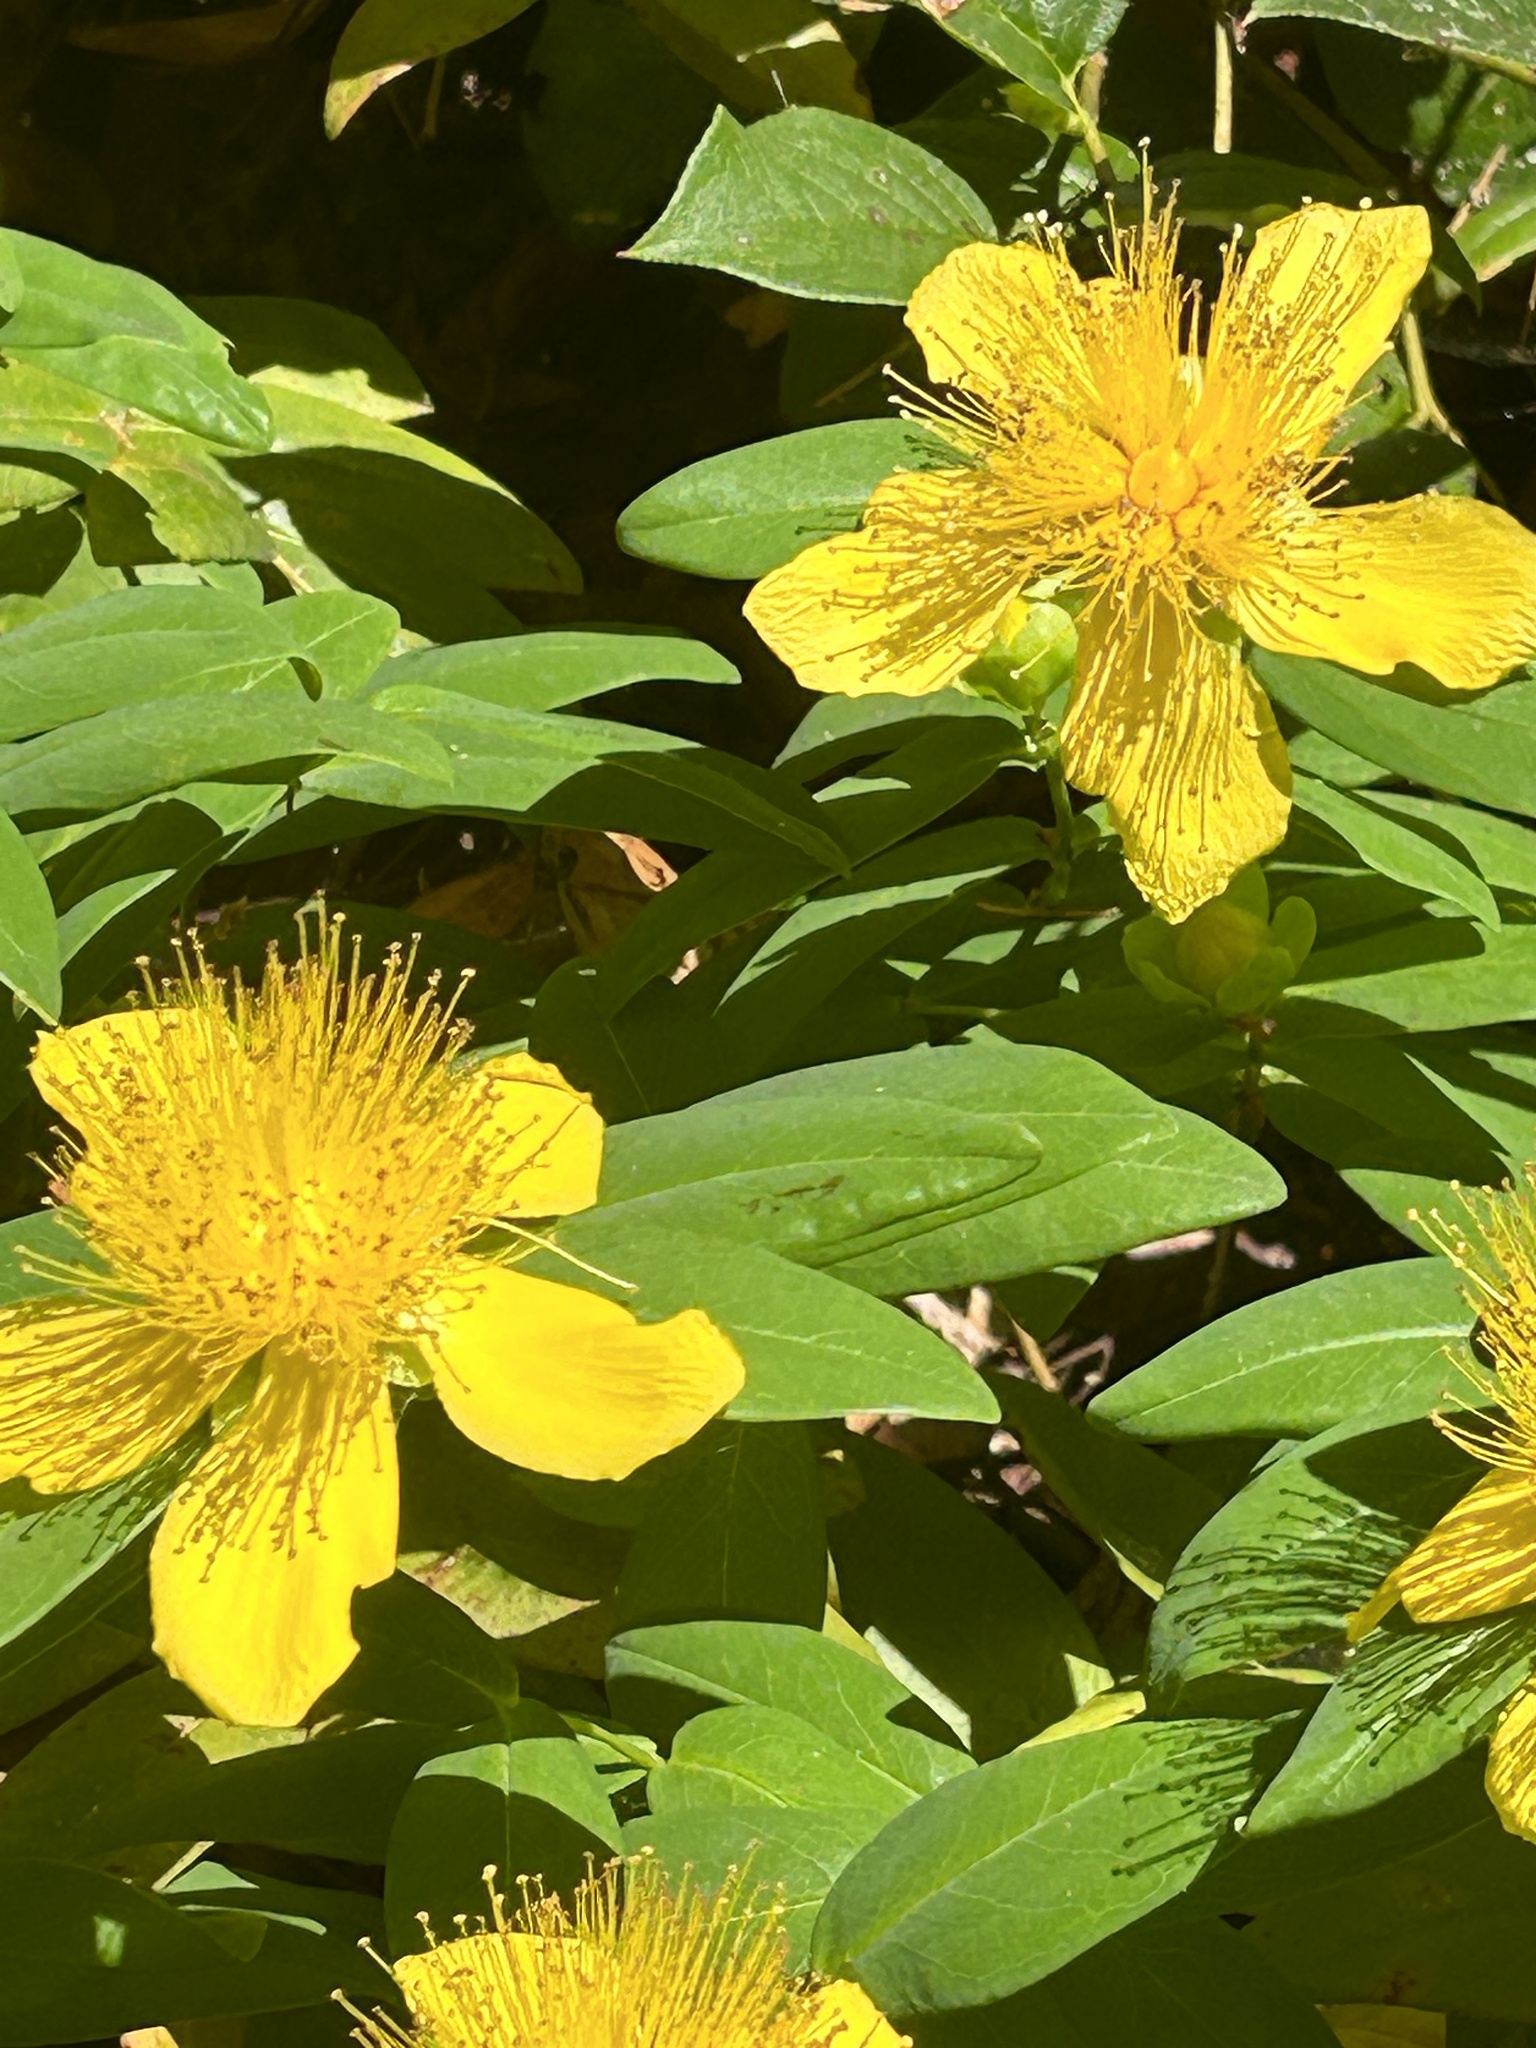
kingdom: Plantae
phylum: Tracheophyta
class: Magnoliopsida
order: Malpighiales
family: Hypericaceae
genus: Hypericum
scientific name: Hypericum calycinum
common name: Rose-of-sharon
